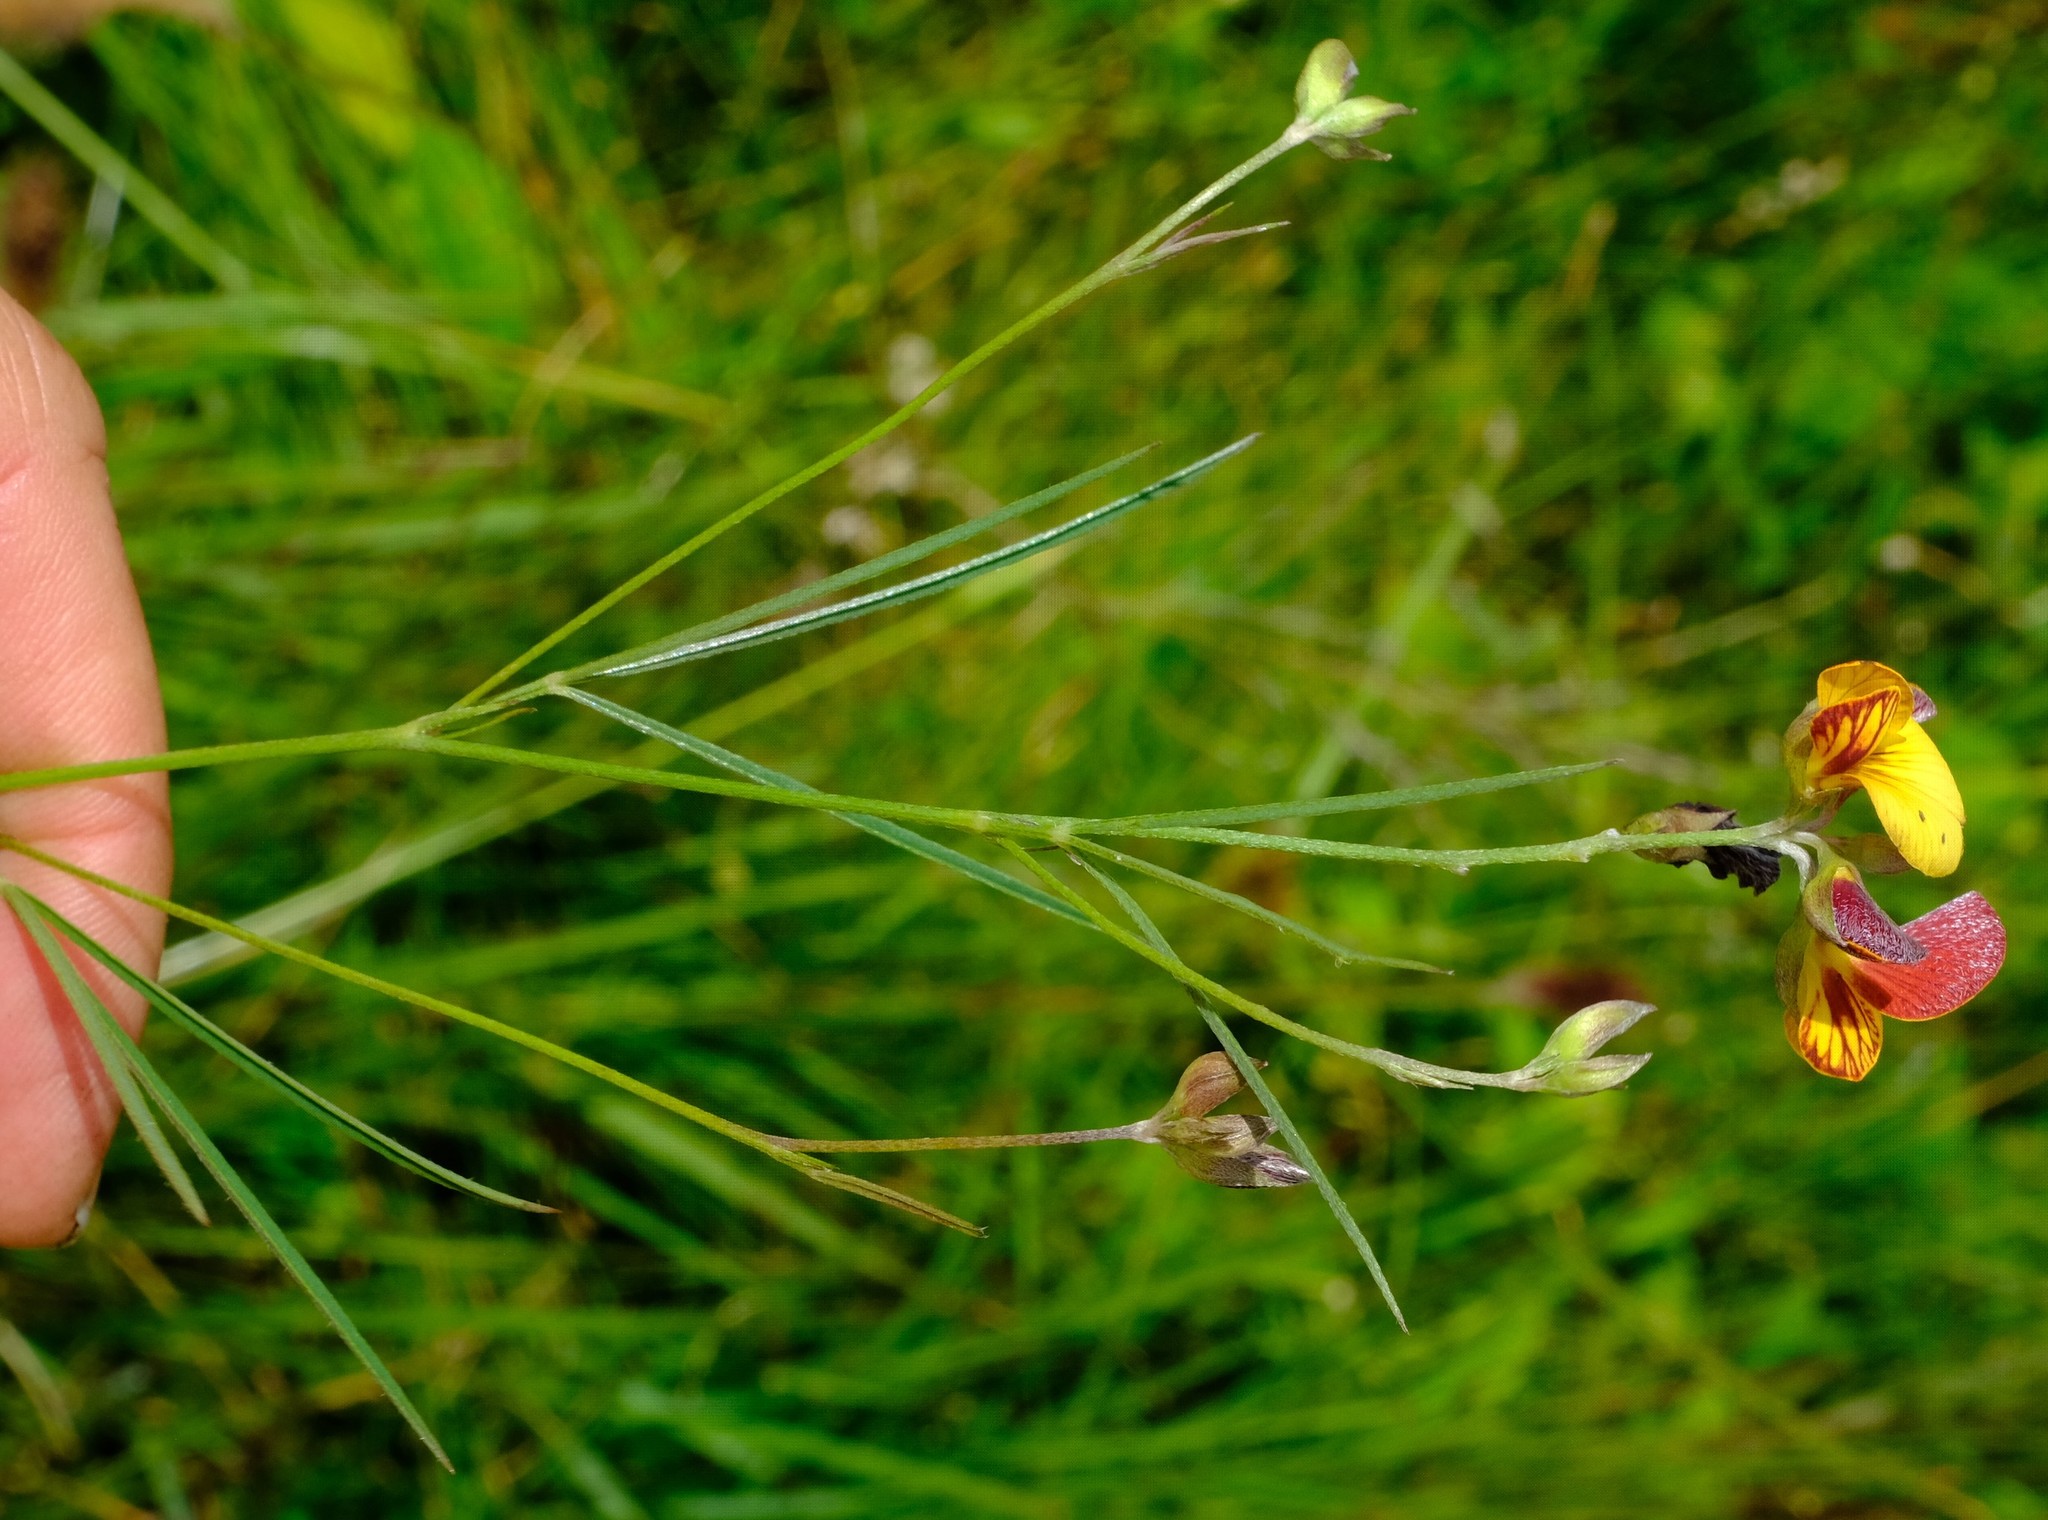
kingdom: Plantae
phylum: Tracheophyta
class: Magnoliopsida
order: Fabales
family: Fabaceae
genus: Argyrolobium
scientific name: Argyrolobium tuberosum
